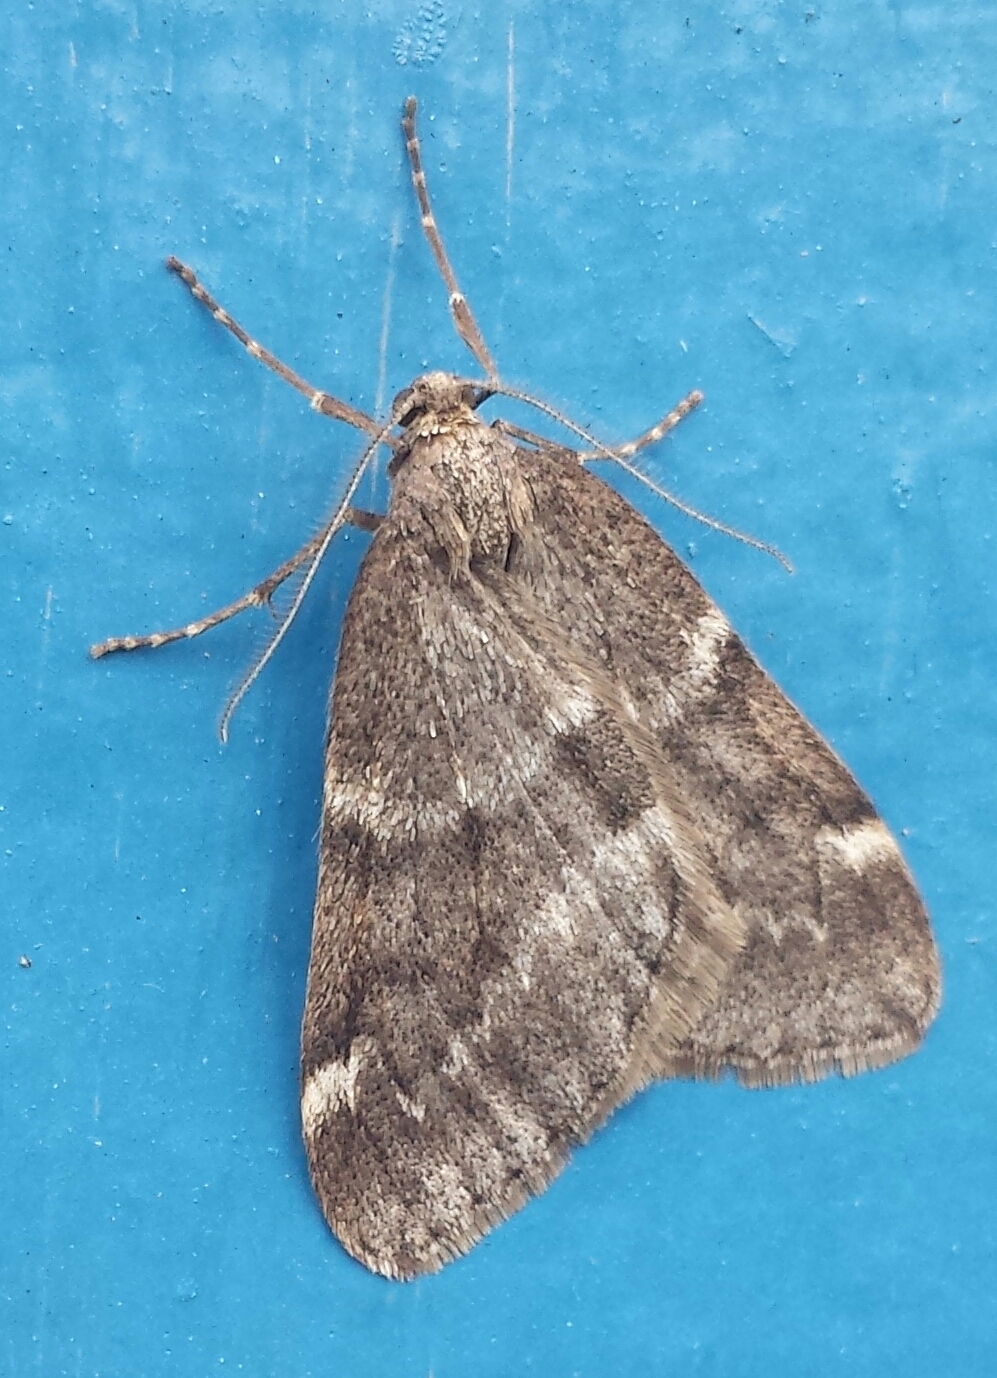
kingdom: Animalia
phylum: Arthropoda
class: Insecta
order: Lepidoptera
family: Geometridae
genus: Alsophila
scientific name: Alsophila pometaria
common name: Fall cankerworm
